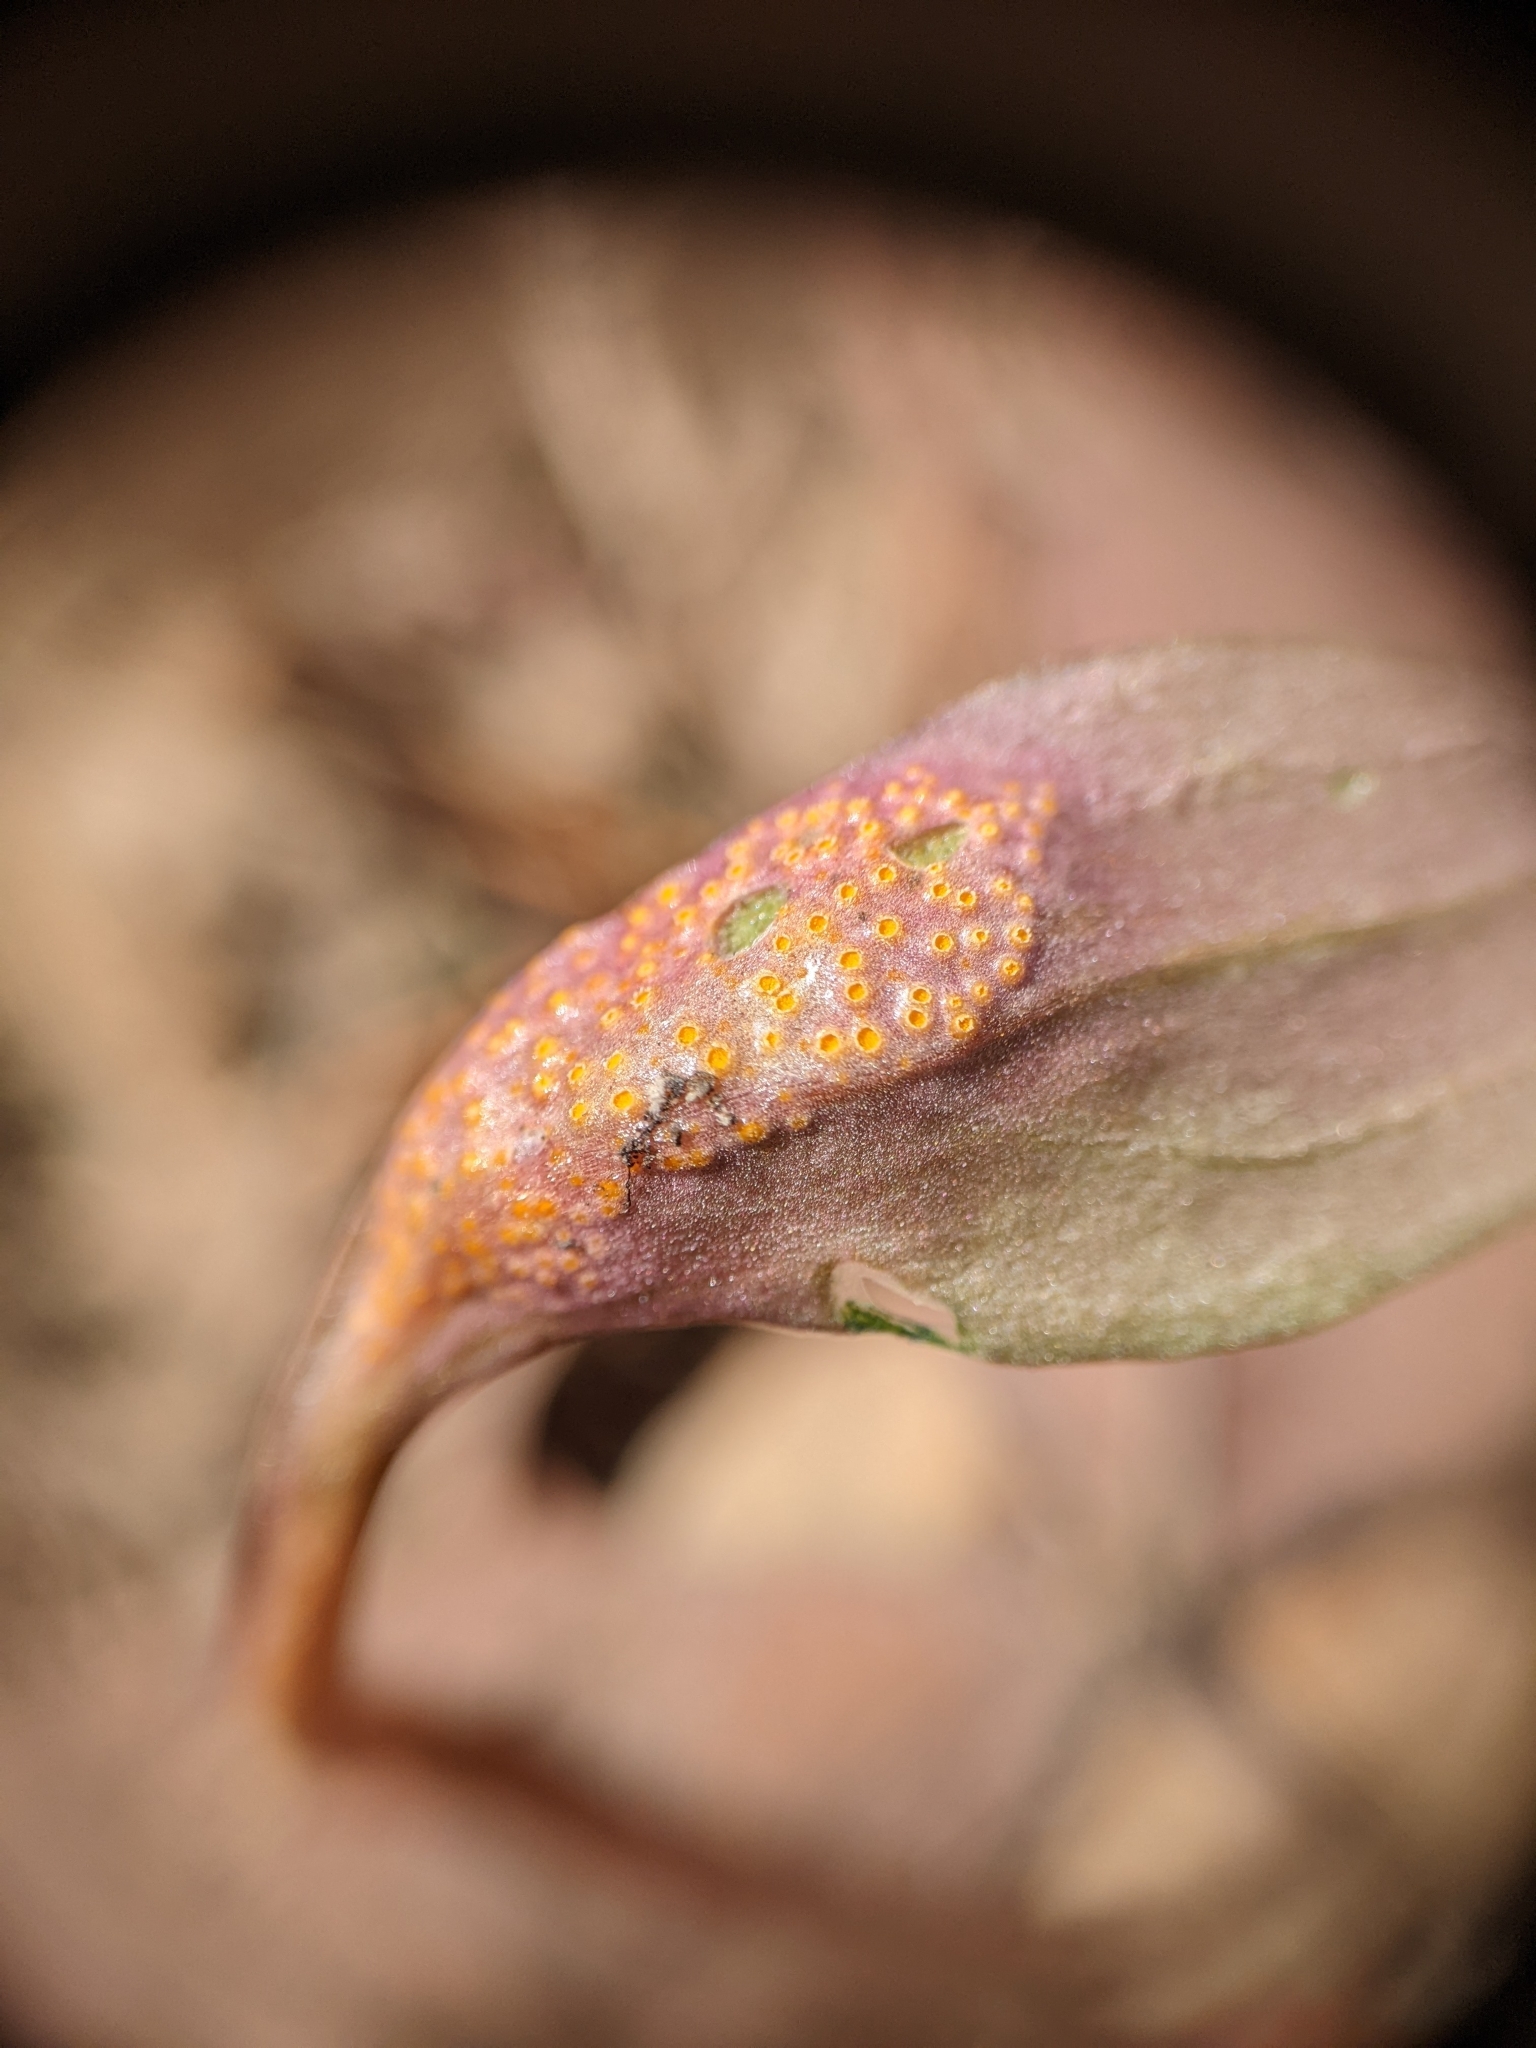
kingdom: Fungi
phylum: Basidiomycota
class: Pucciniomycetes
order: Pucciniales
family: Pucciniaceae
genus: Puccinia
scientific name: Puccinia mariae-wilsoniae
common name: Spring beauty rust
